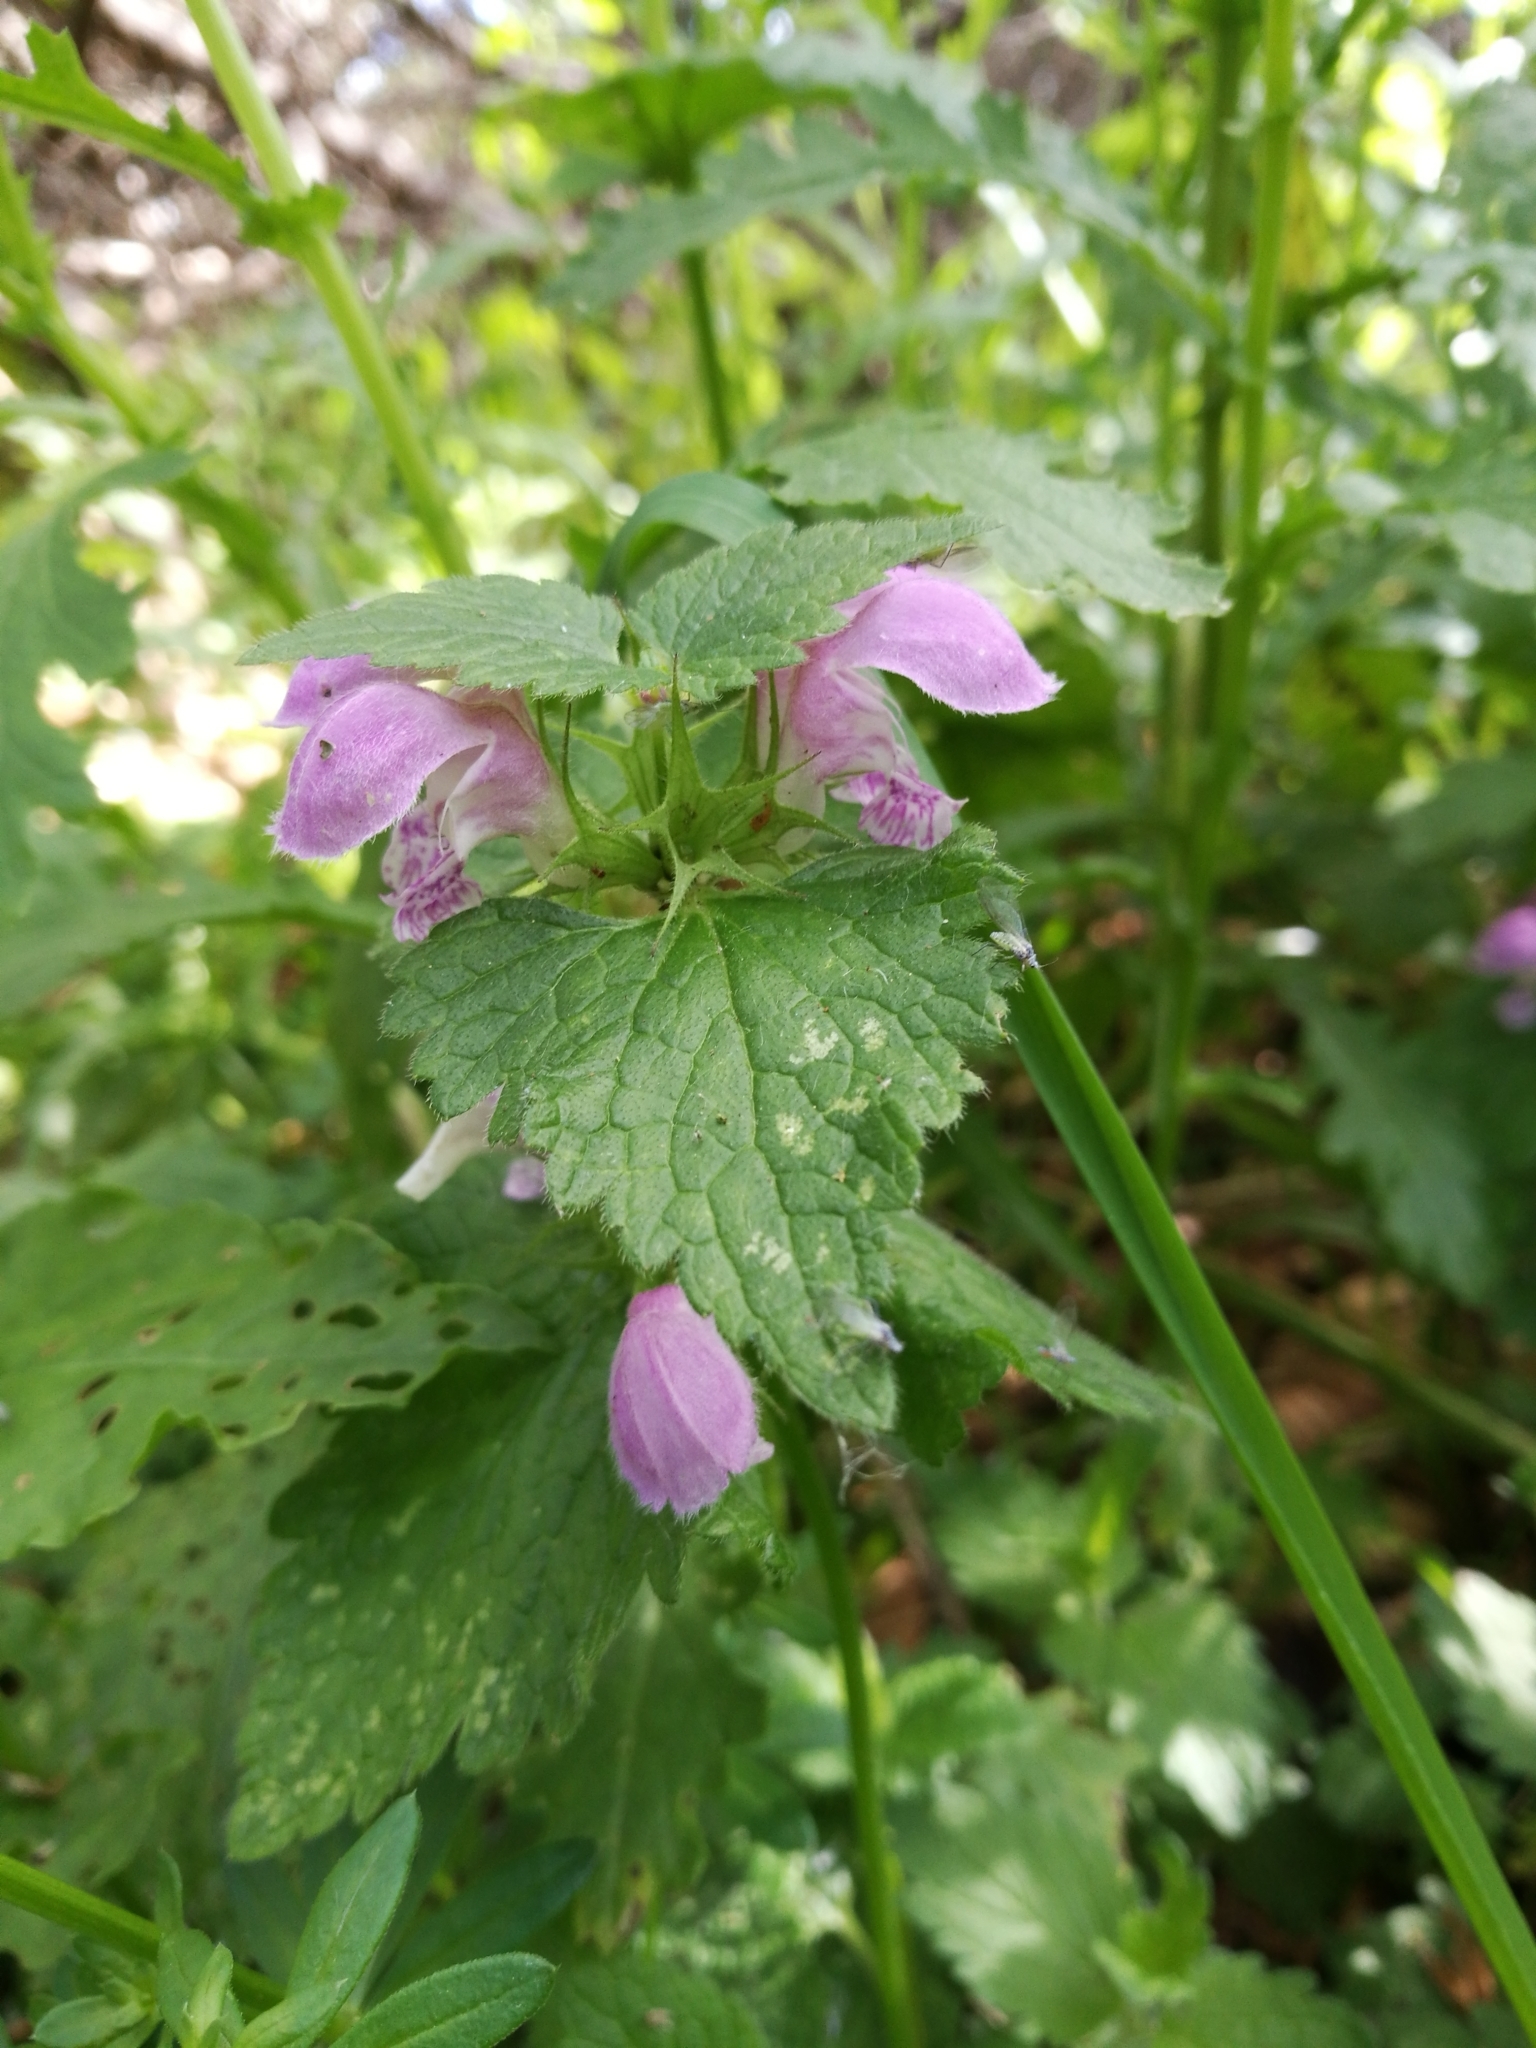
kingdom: Plantae
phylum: Tracheophyta
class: Magnoliopsida
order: Lamiales
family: Lamiaceae
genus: Lamium
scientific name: Lamium maculatum
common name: Spotted dead-nettle
